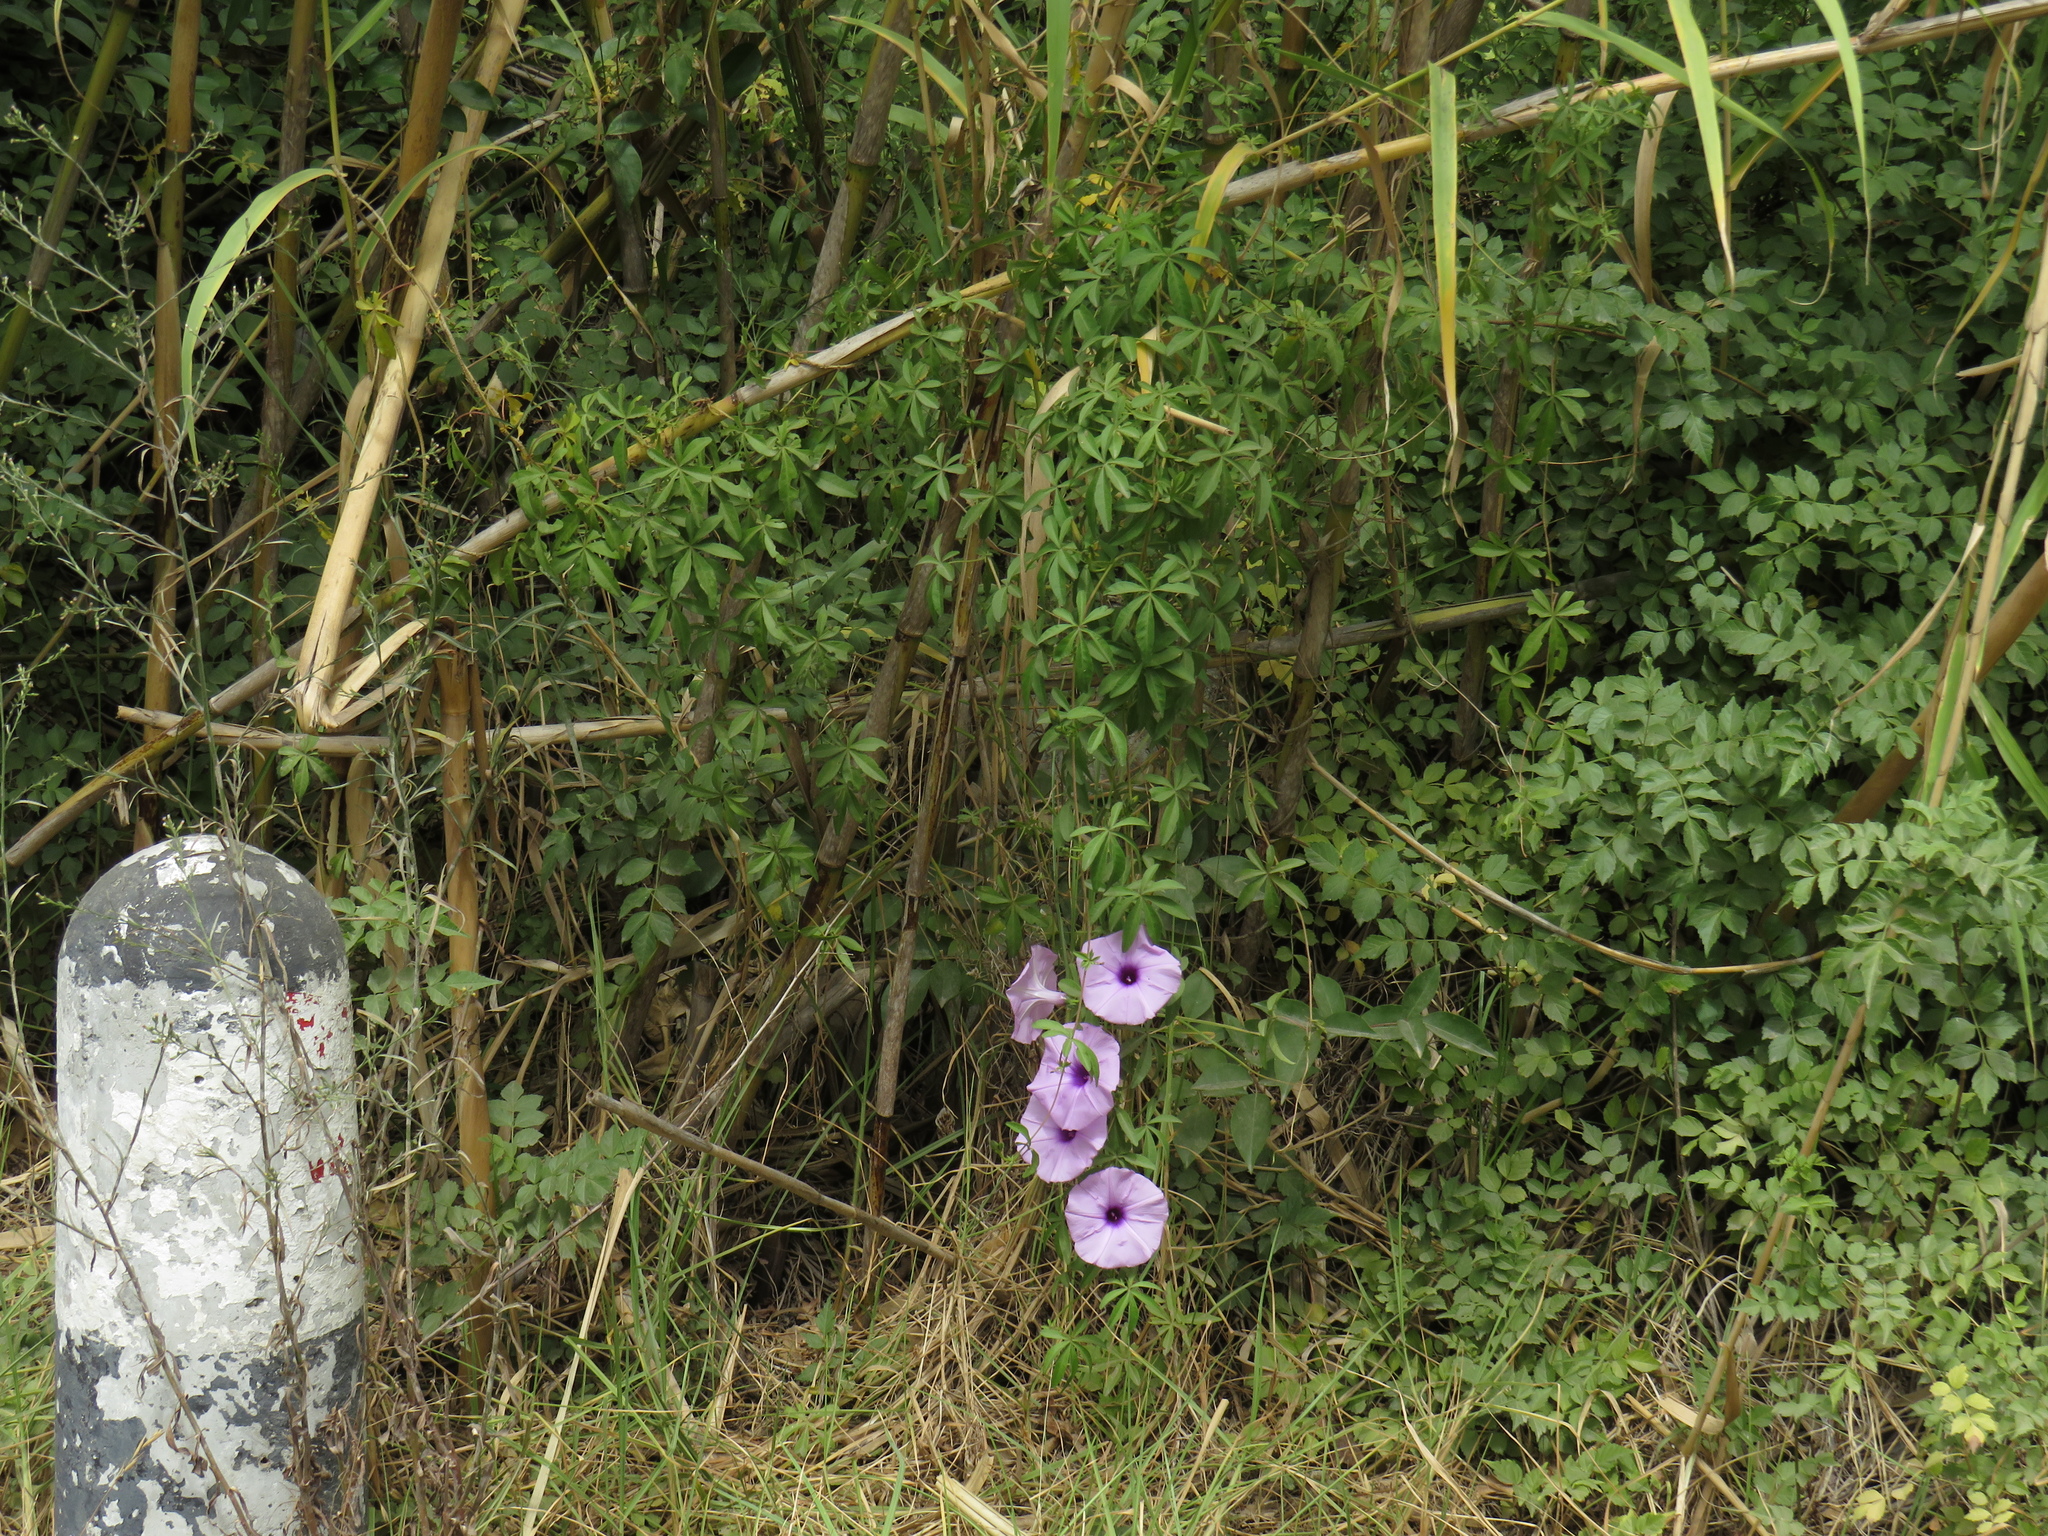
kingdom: Plantae
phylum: Tracheophyta
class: Magnoliopsida
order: Solanales
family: Convolvulaceae
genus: Ipomoea
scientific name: Ipomoea cairica
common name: Mile a minute vine
